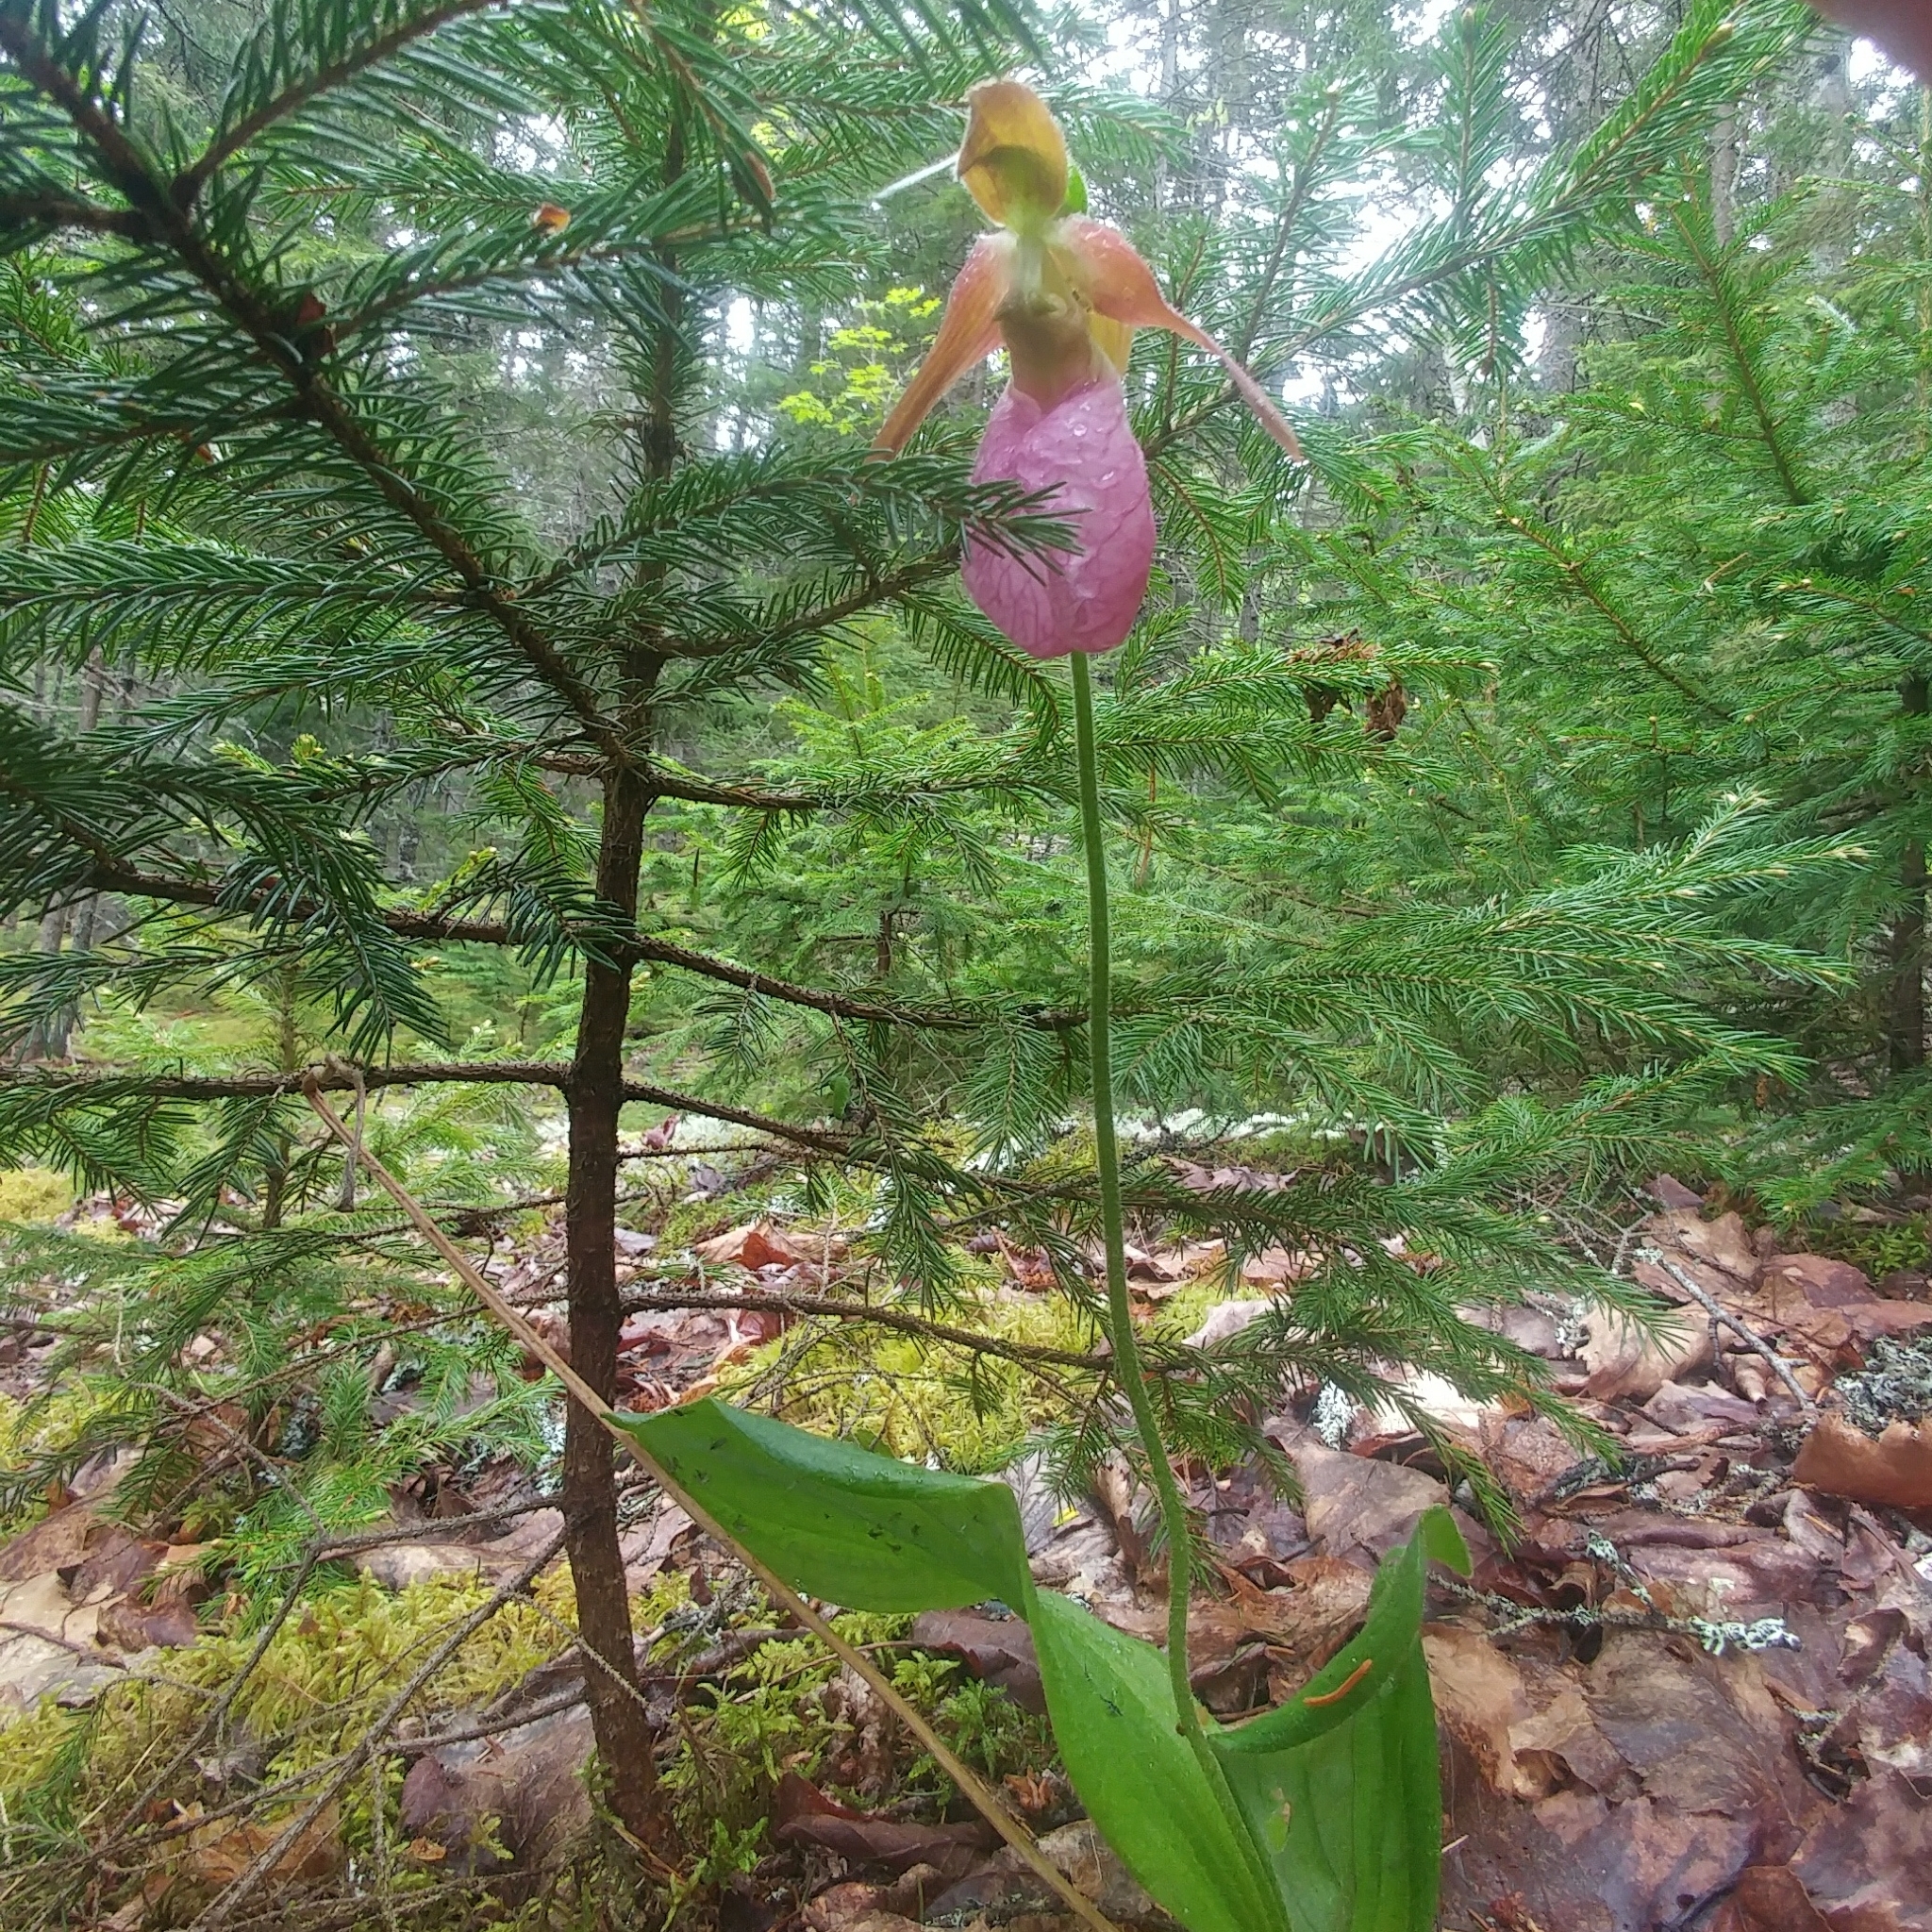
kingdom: Plantae
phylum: Tracheophyta
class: Liliopsida
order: Asparagales
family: Orchidaceae
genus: Cypripedium
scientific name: Cypripedium acaule
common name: Pink lady's-slipper
